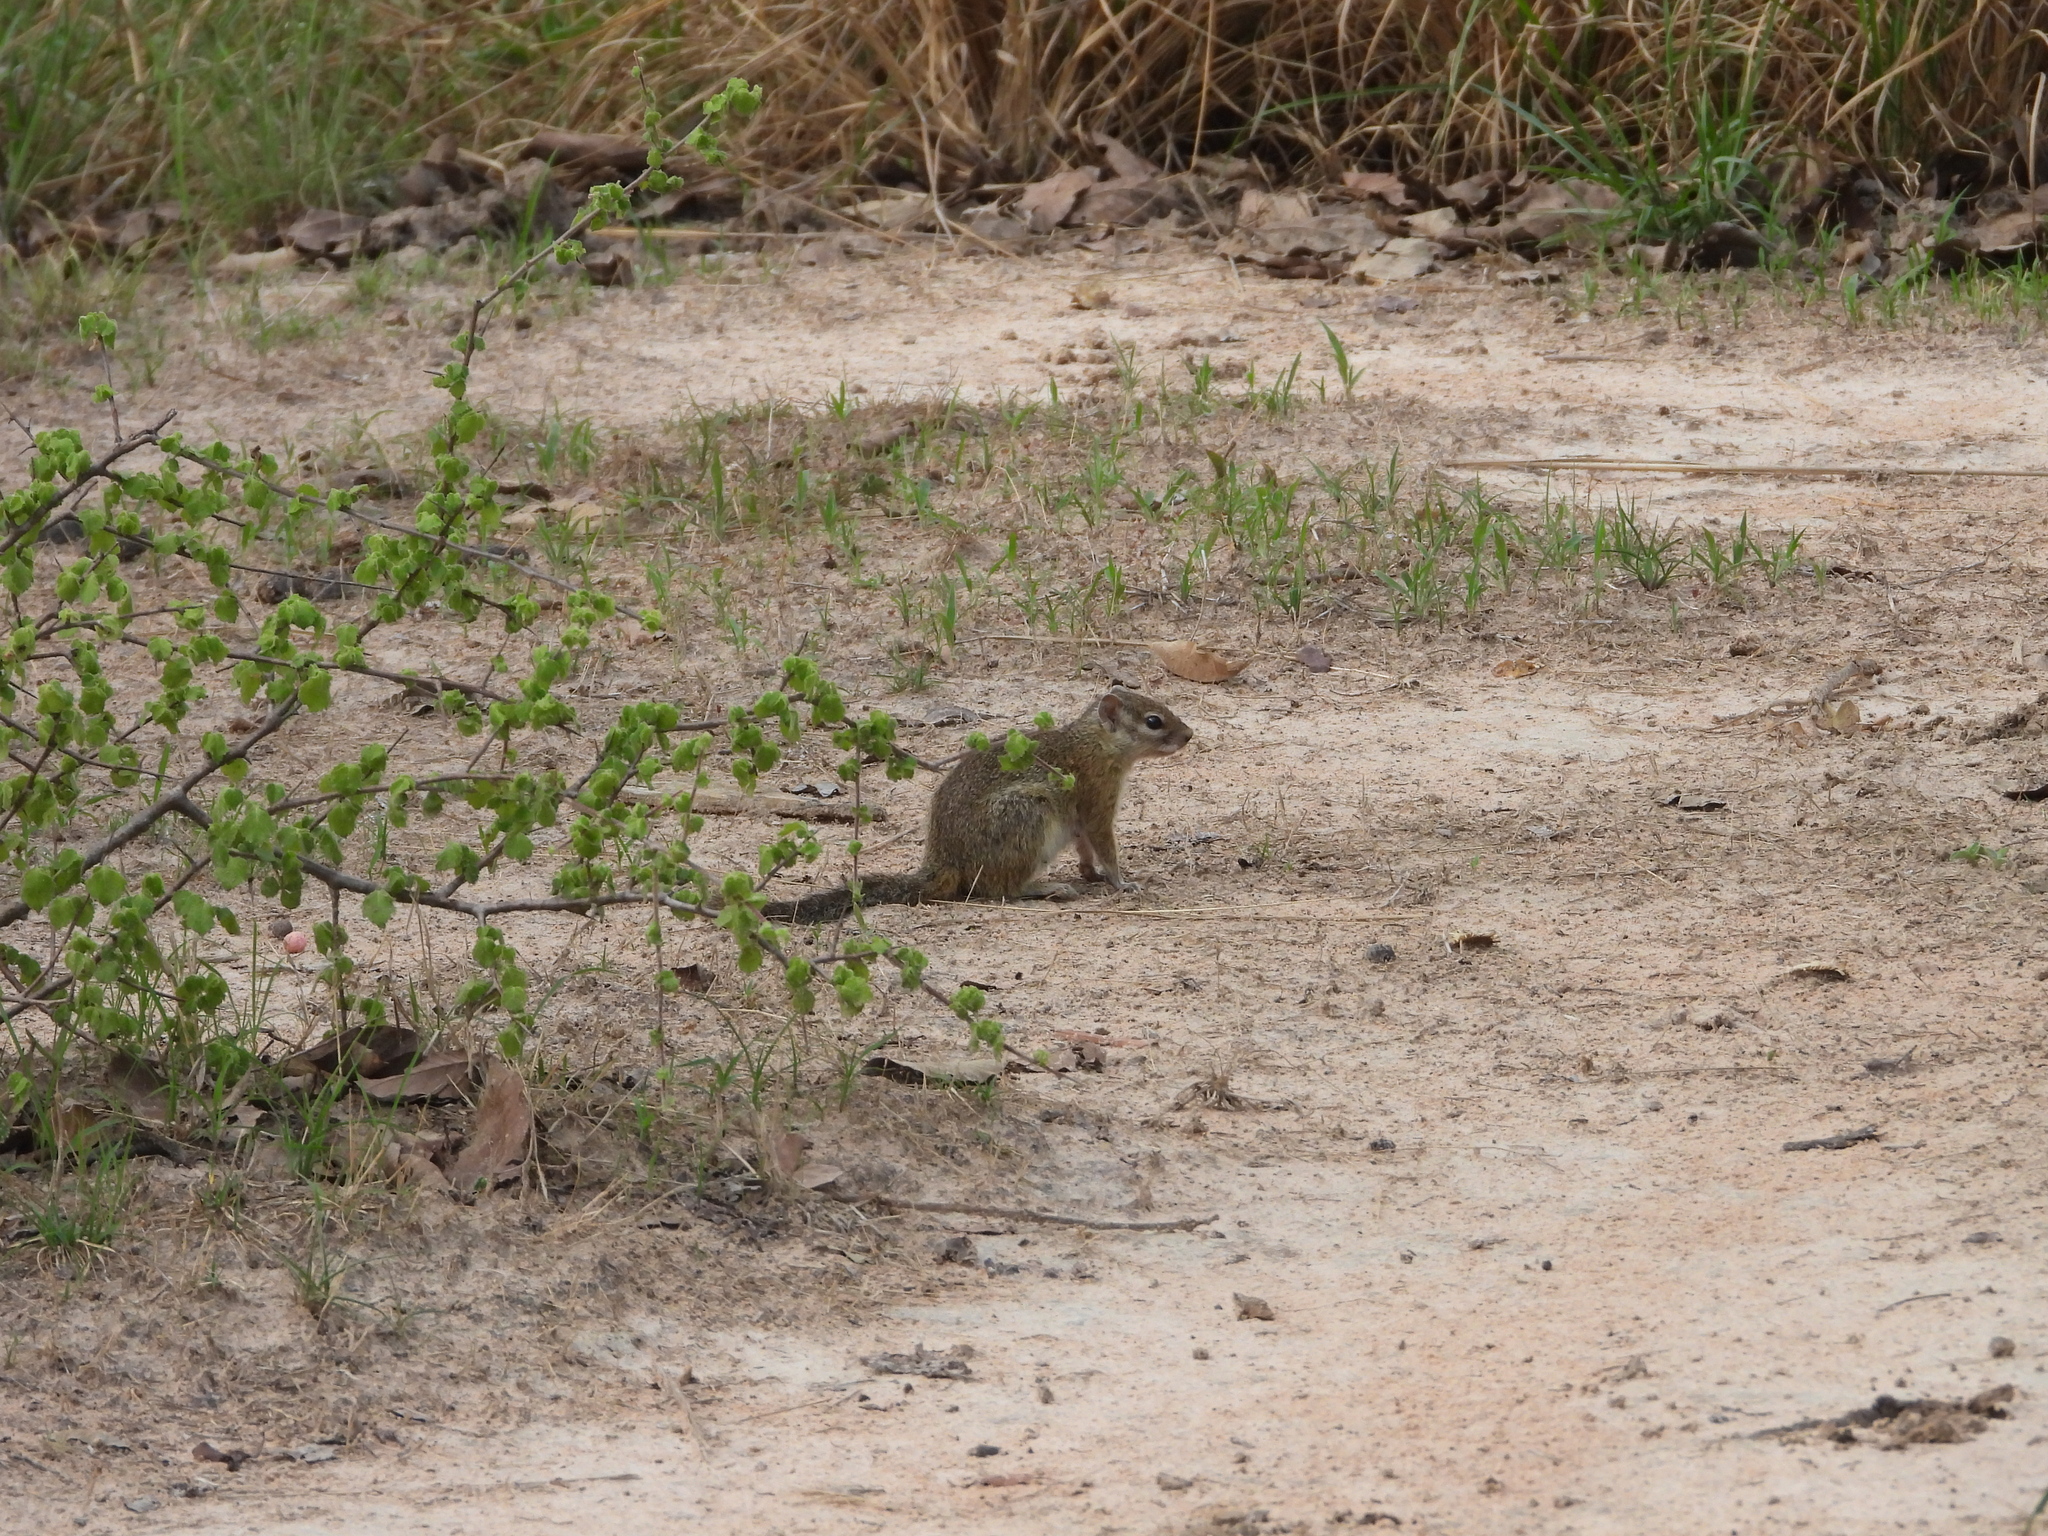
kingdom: Animalia
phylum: Chordata
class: Mammalia
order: Rodentia
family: Sciuridae
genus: Paraxerus
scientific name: Paraxerus cepapi
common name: Smith's bush squirrel
